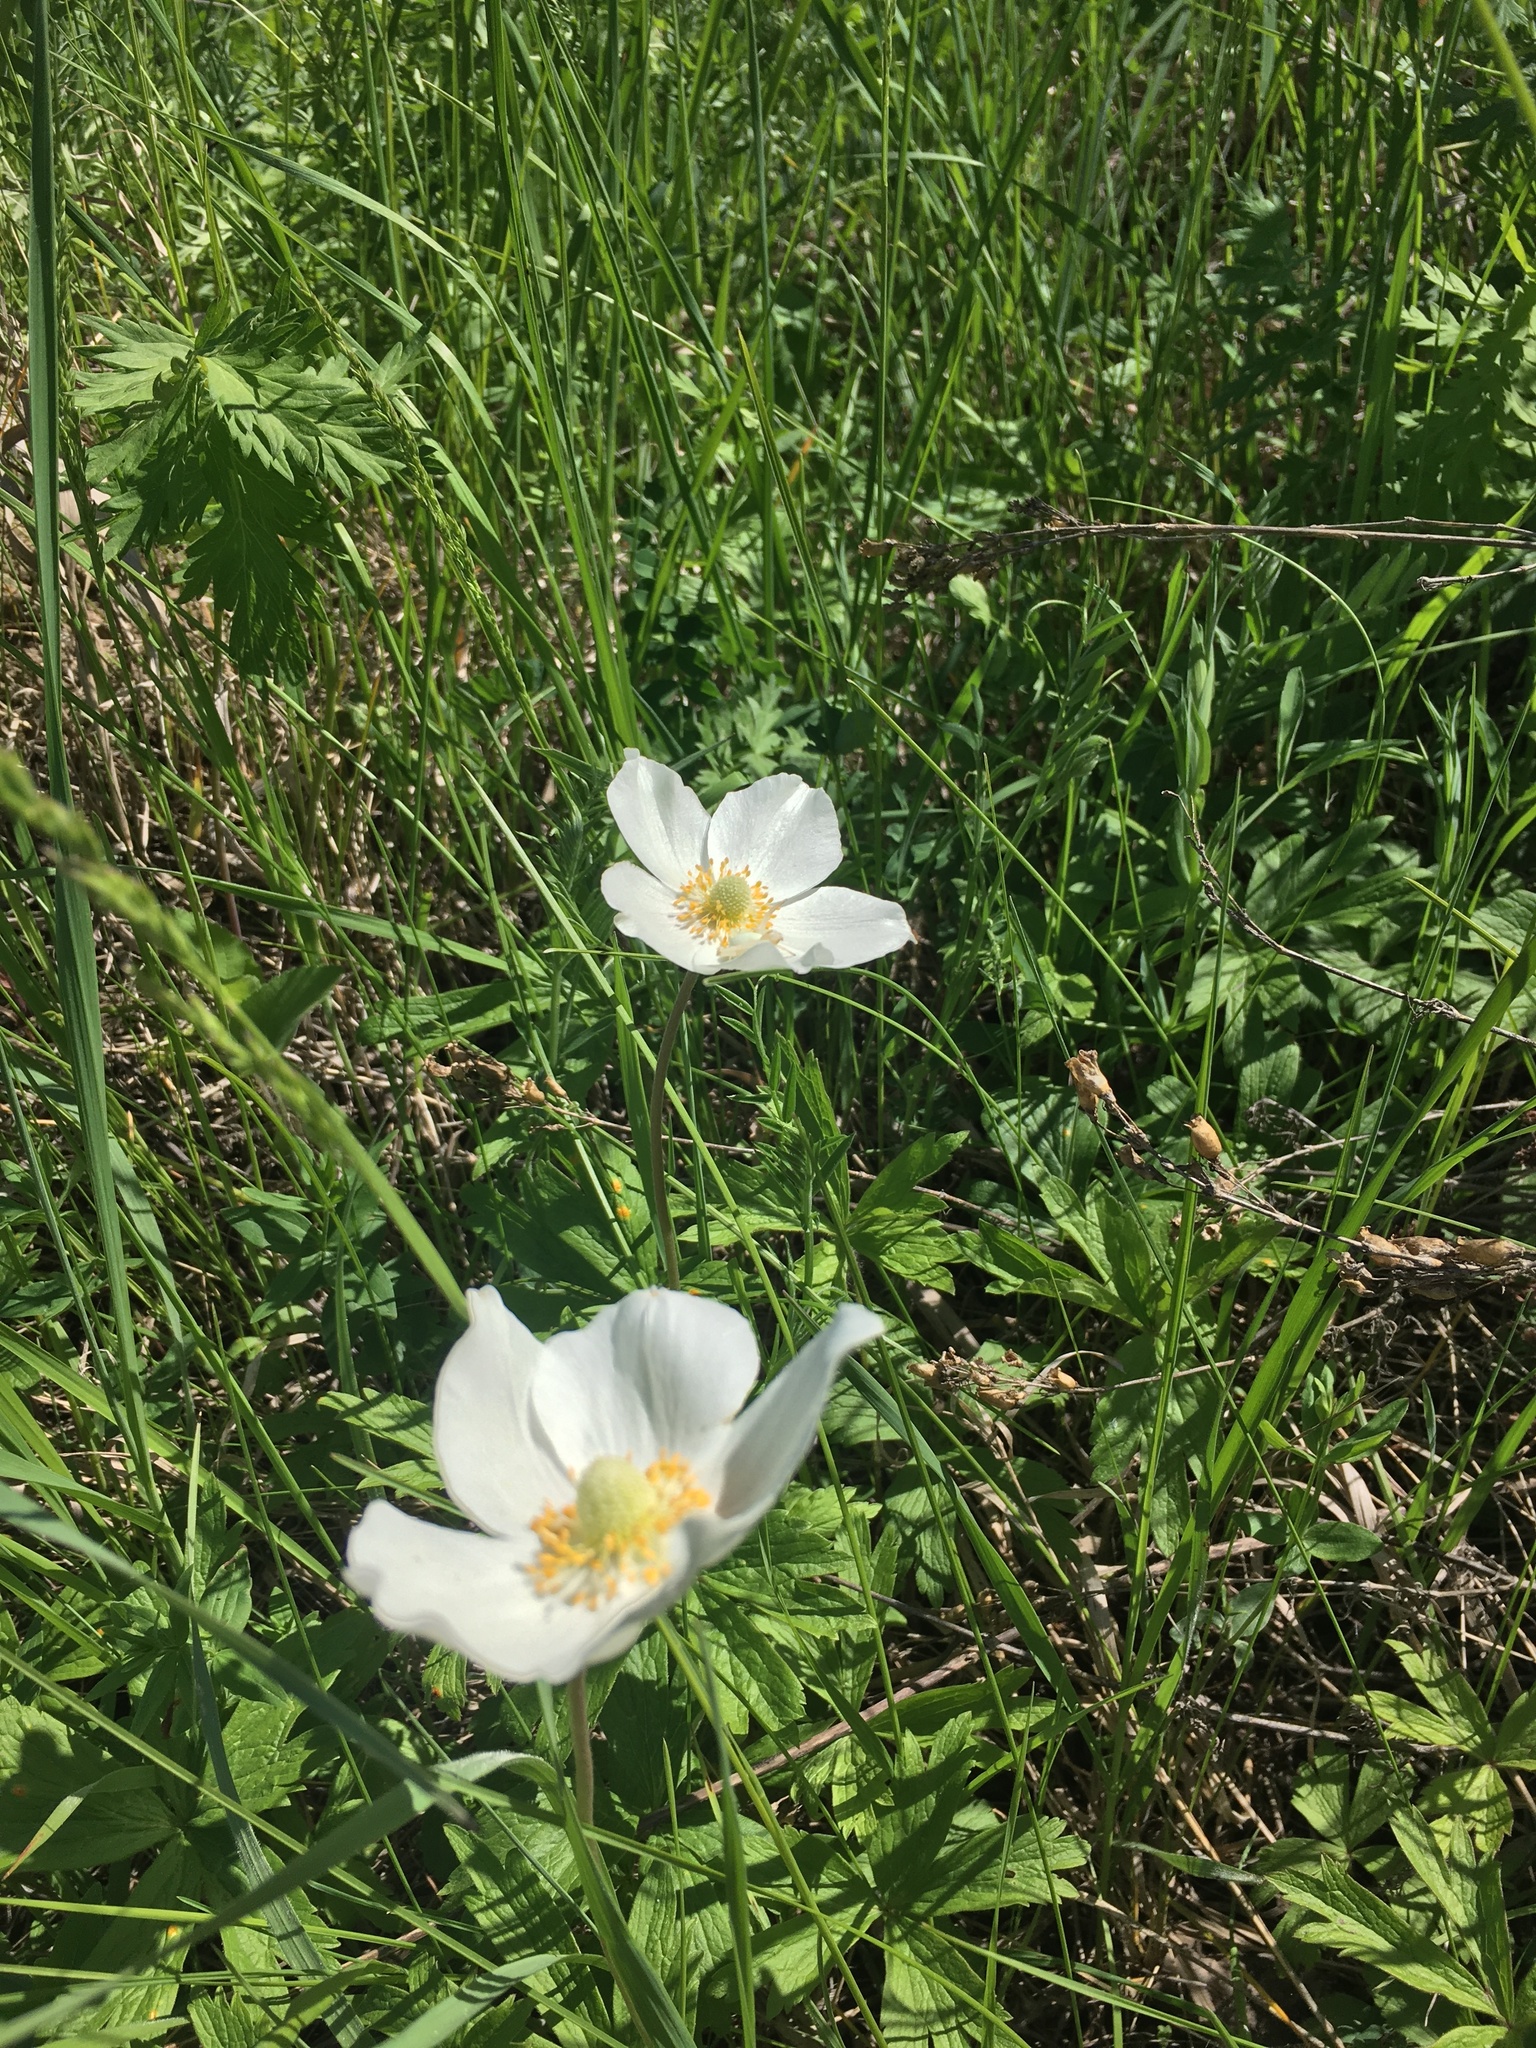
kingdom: Plantae
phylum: Tracheophyta
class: Magnoliopsida
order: Ranunculales
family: Ranunculaceae
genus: Anemone
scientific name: Anemone sylvestris
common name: Snowdrop anemone
